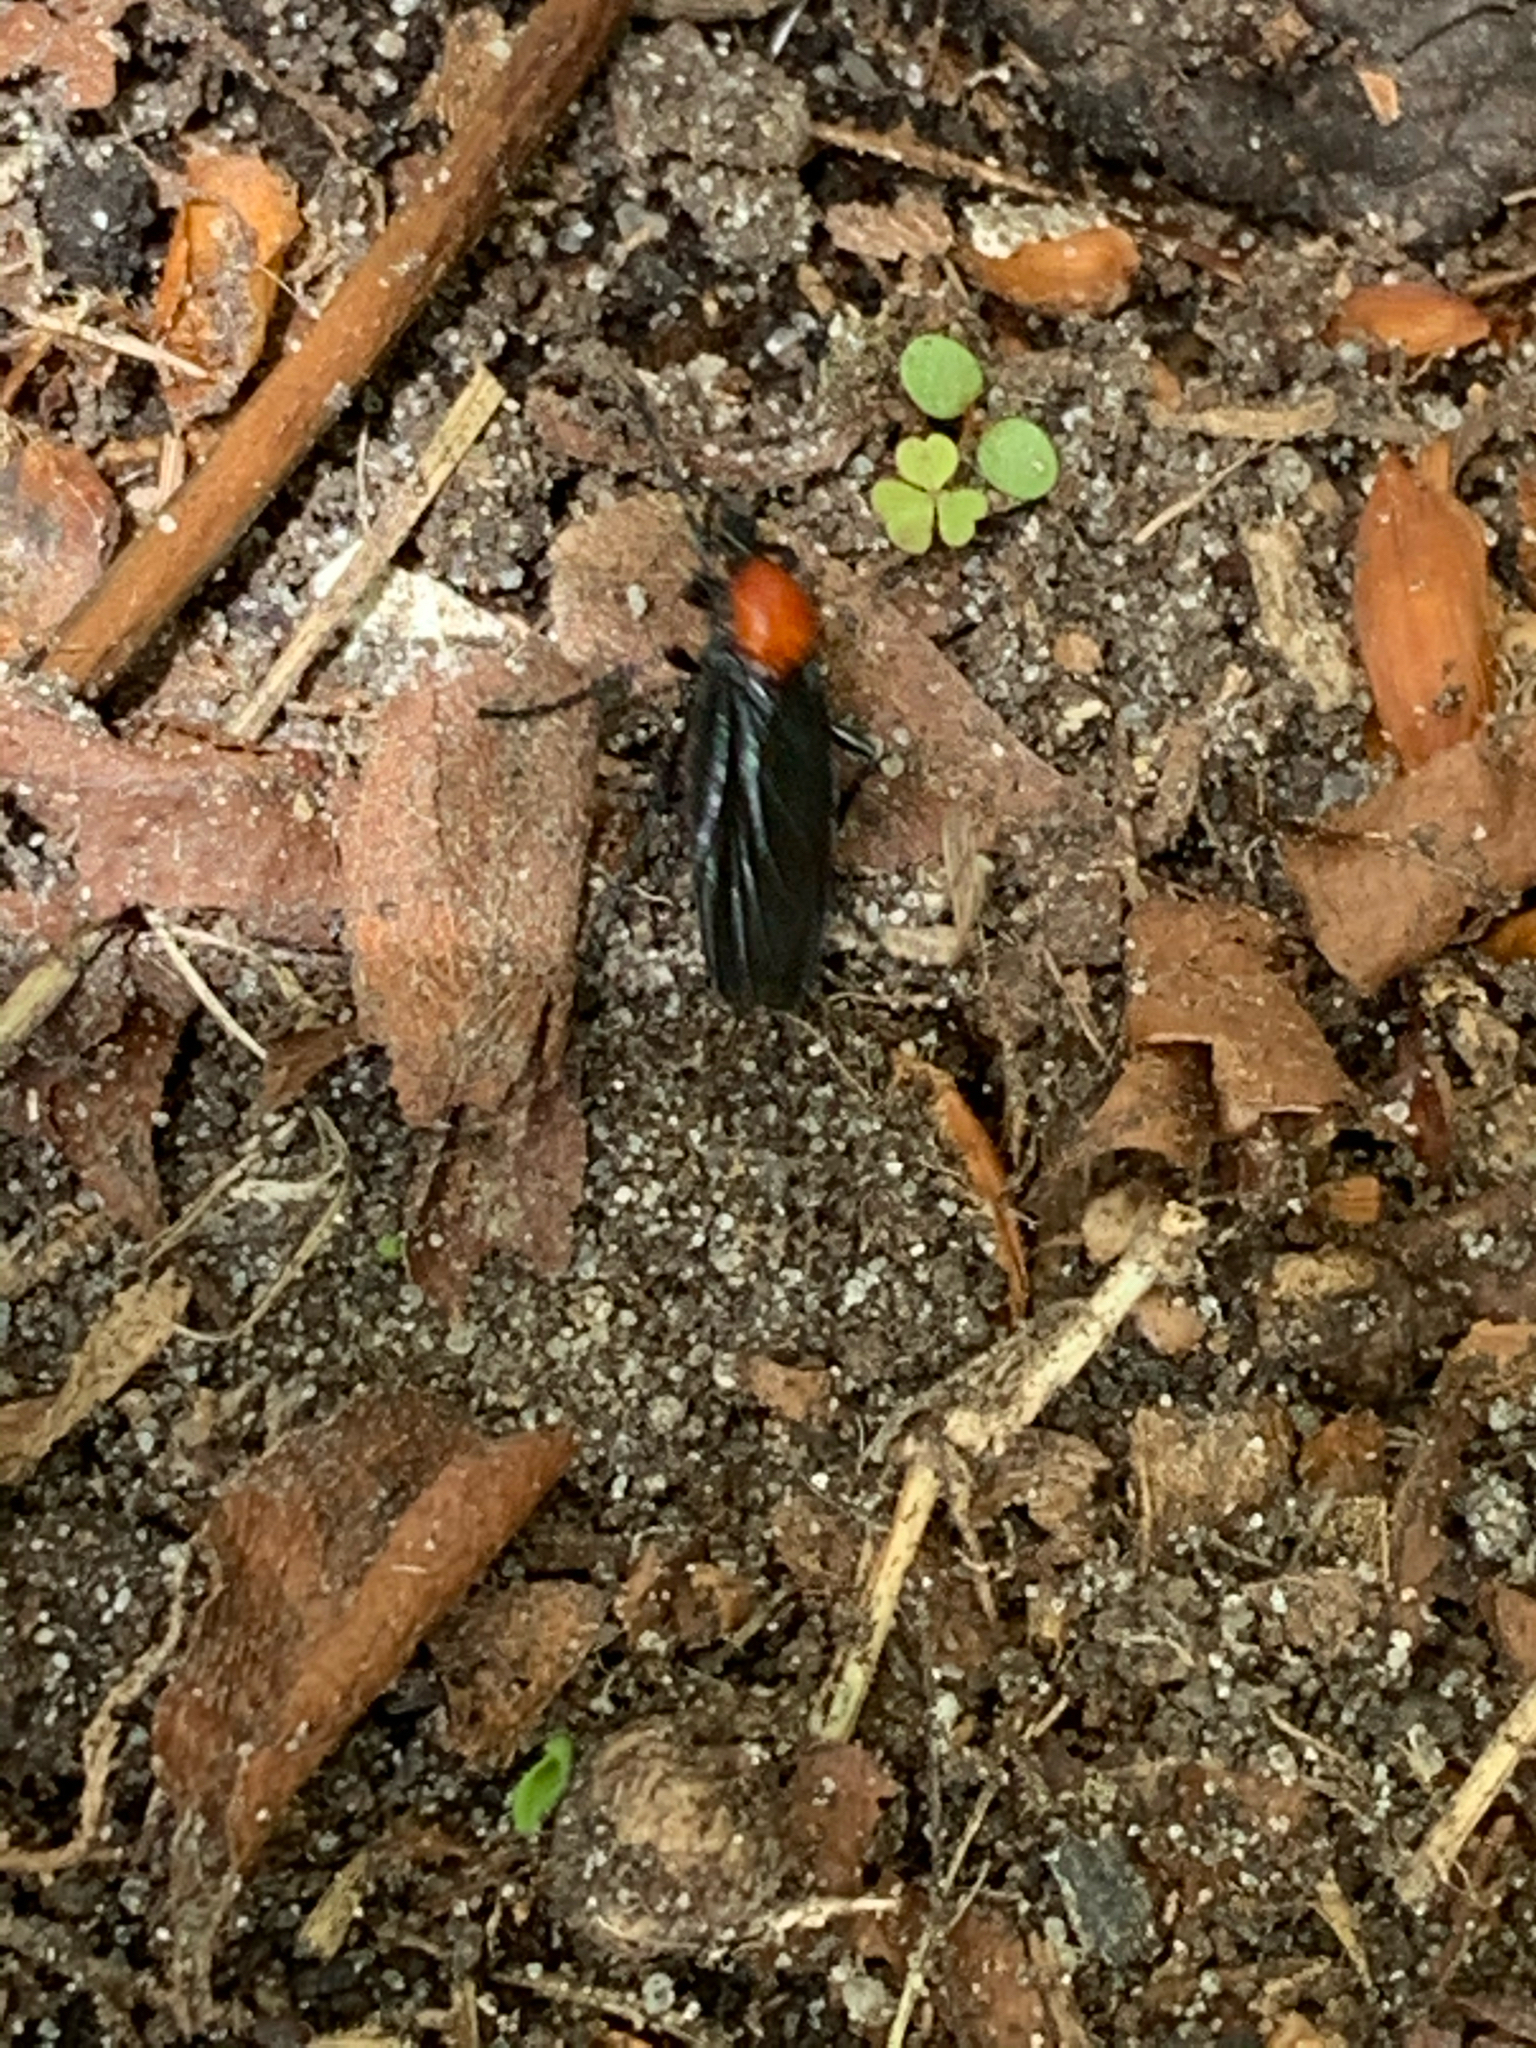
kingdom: Animalia
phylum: Arthropoda
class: Insecta
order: Diptera
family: Bibionidae
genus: Bibio
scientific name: Bibio superfluus
